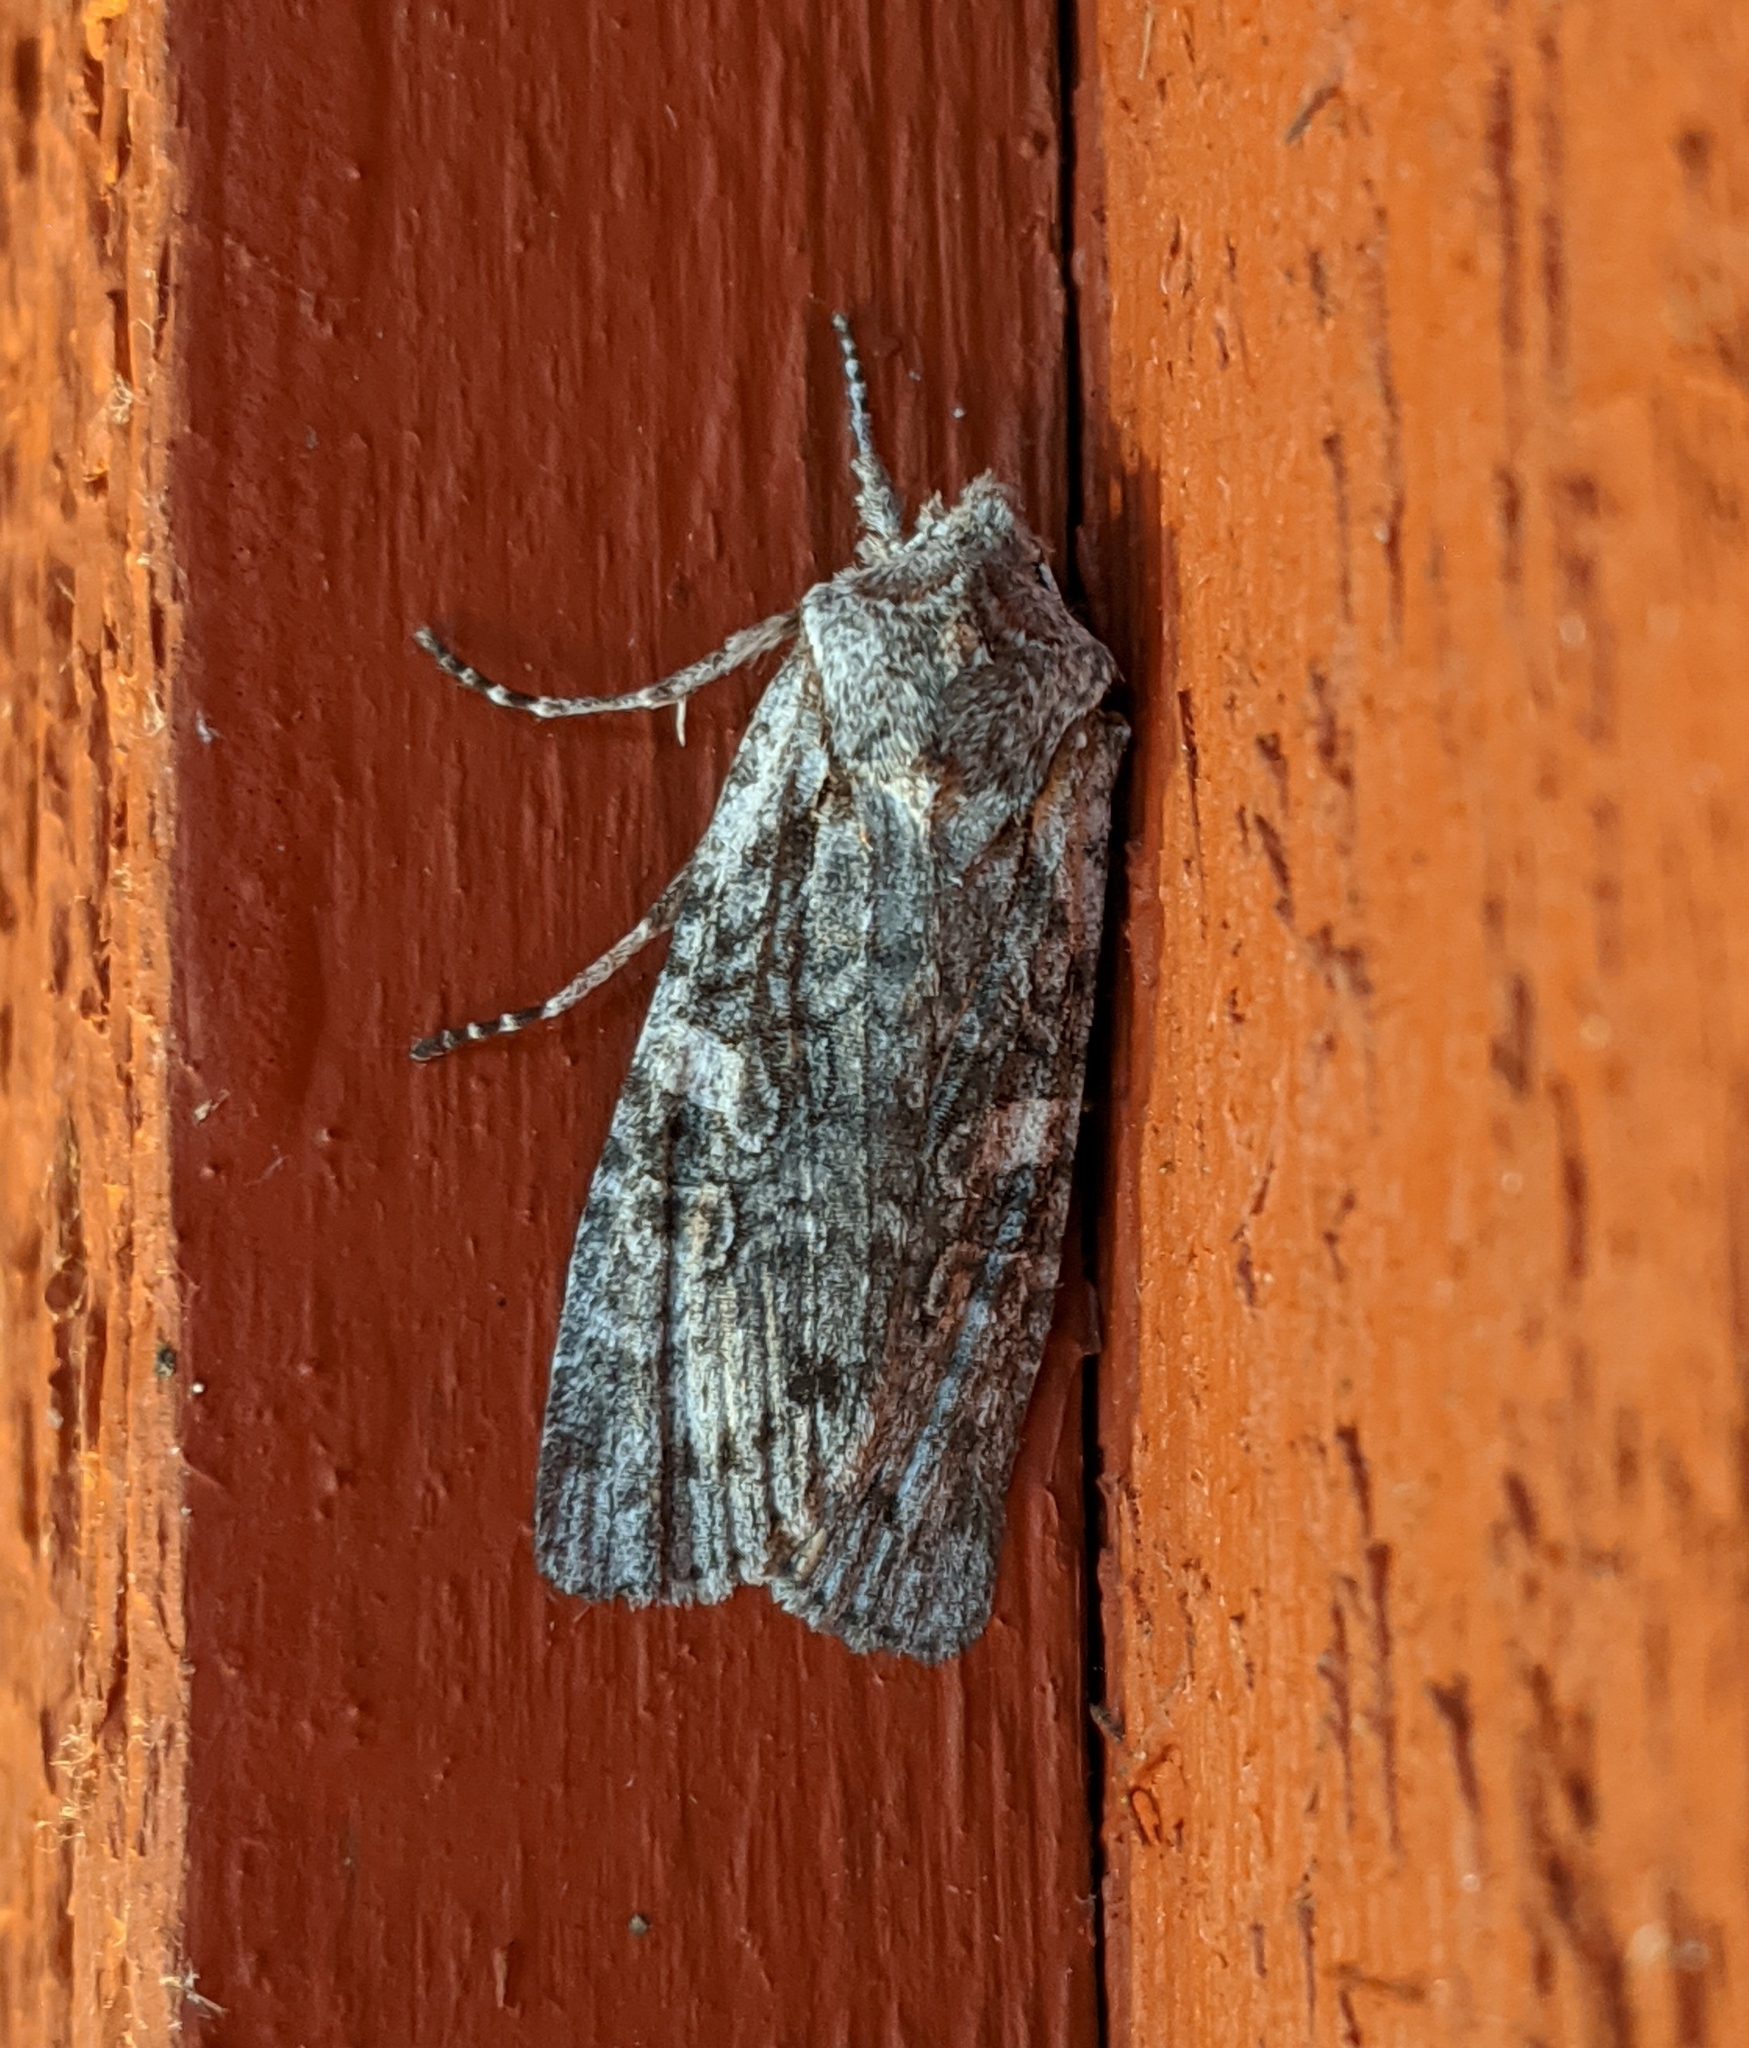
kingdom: Animalia
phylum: Arthropoda
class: Insecta
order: Lepidoptera
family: Noctuidae
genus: Lithophane
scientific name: Lithophane pertorrida
